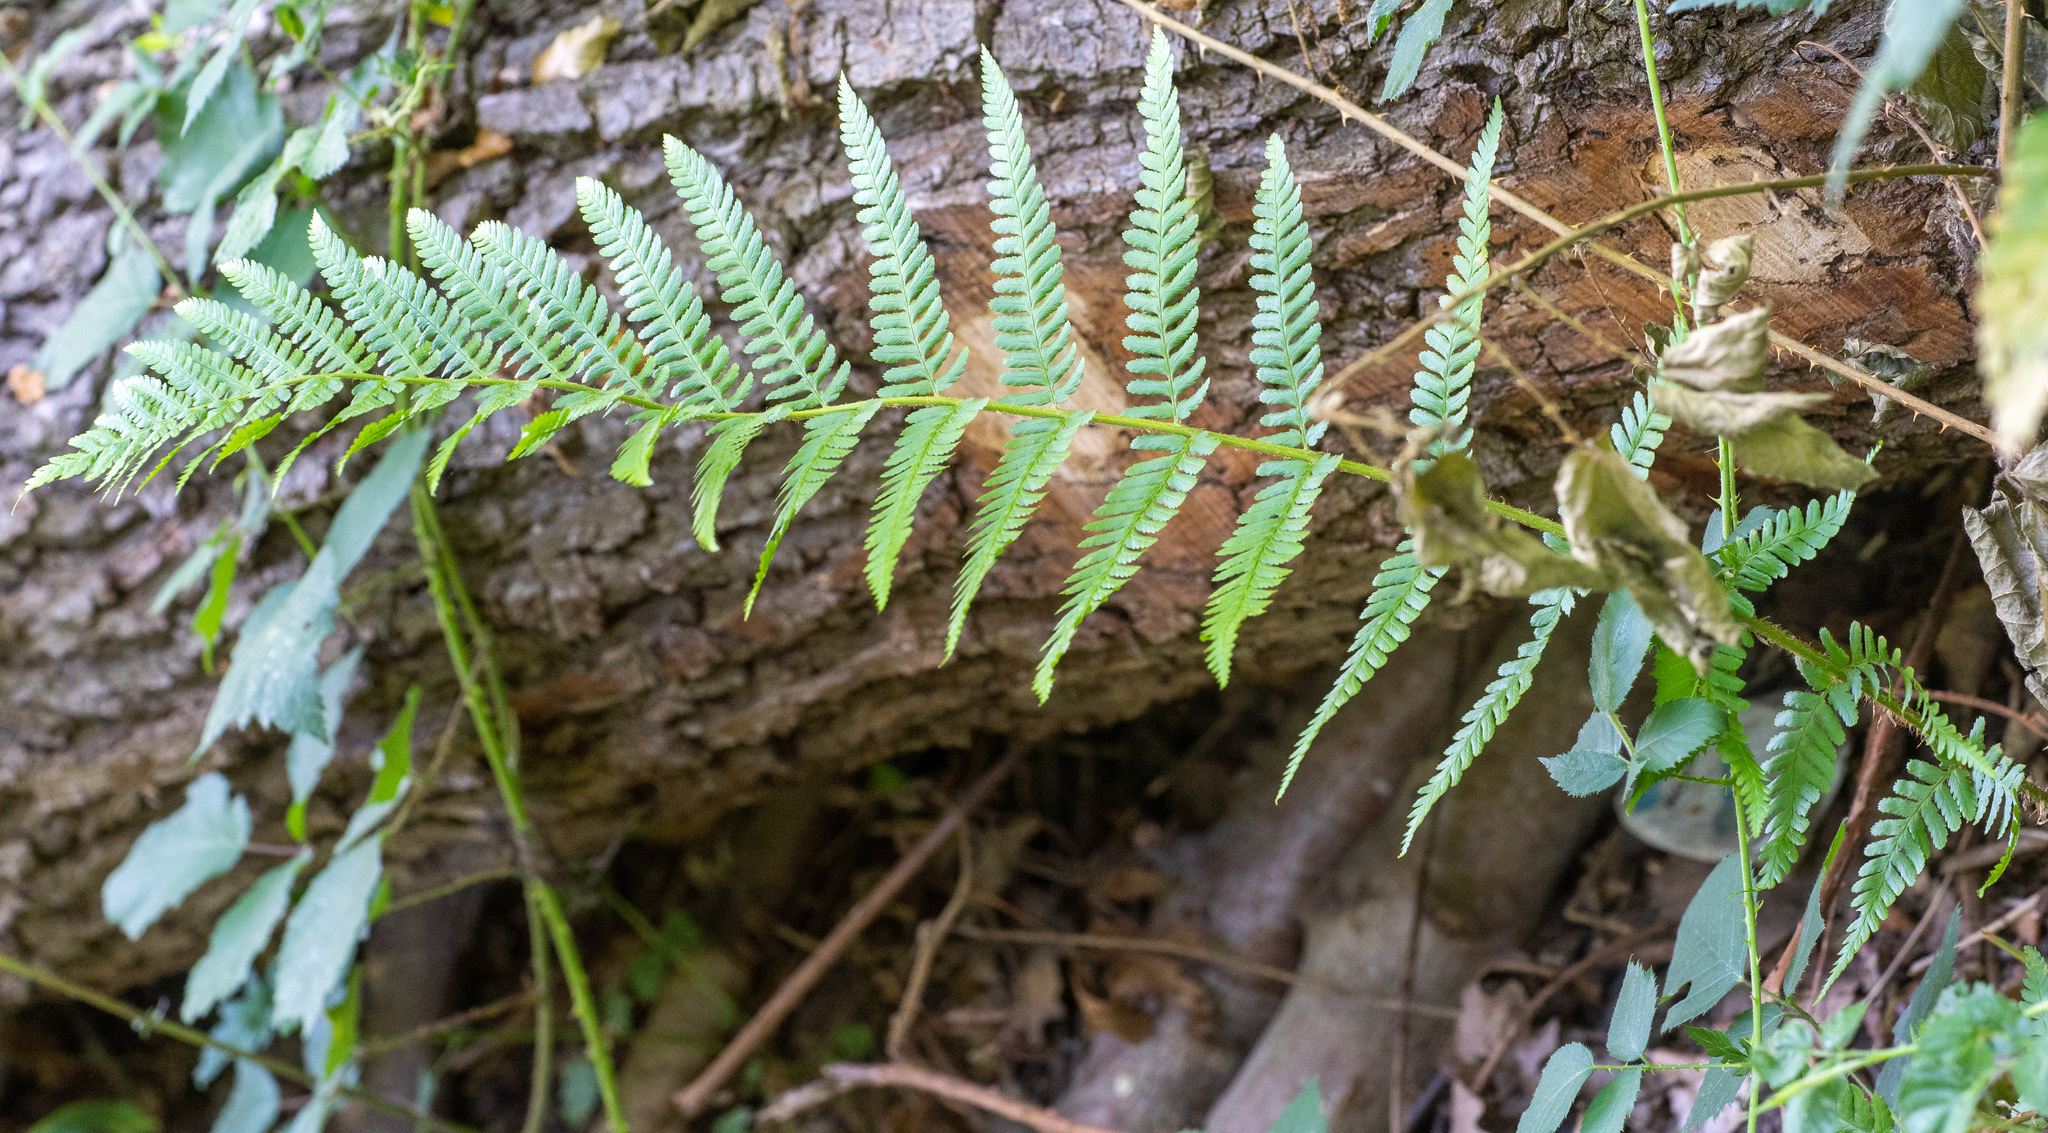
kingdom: Plantae
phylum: Tracheophyta
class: Polypodiopsida
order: Polypodiales
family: Dryopteridaceae
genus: Dryopteris
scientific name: Dryopteris filix-mas
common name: Male fern
